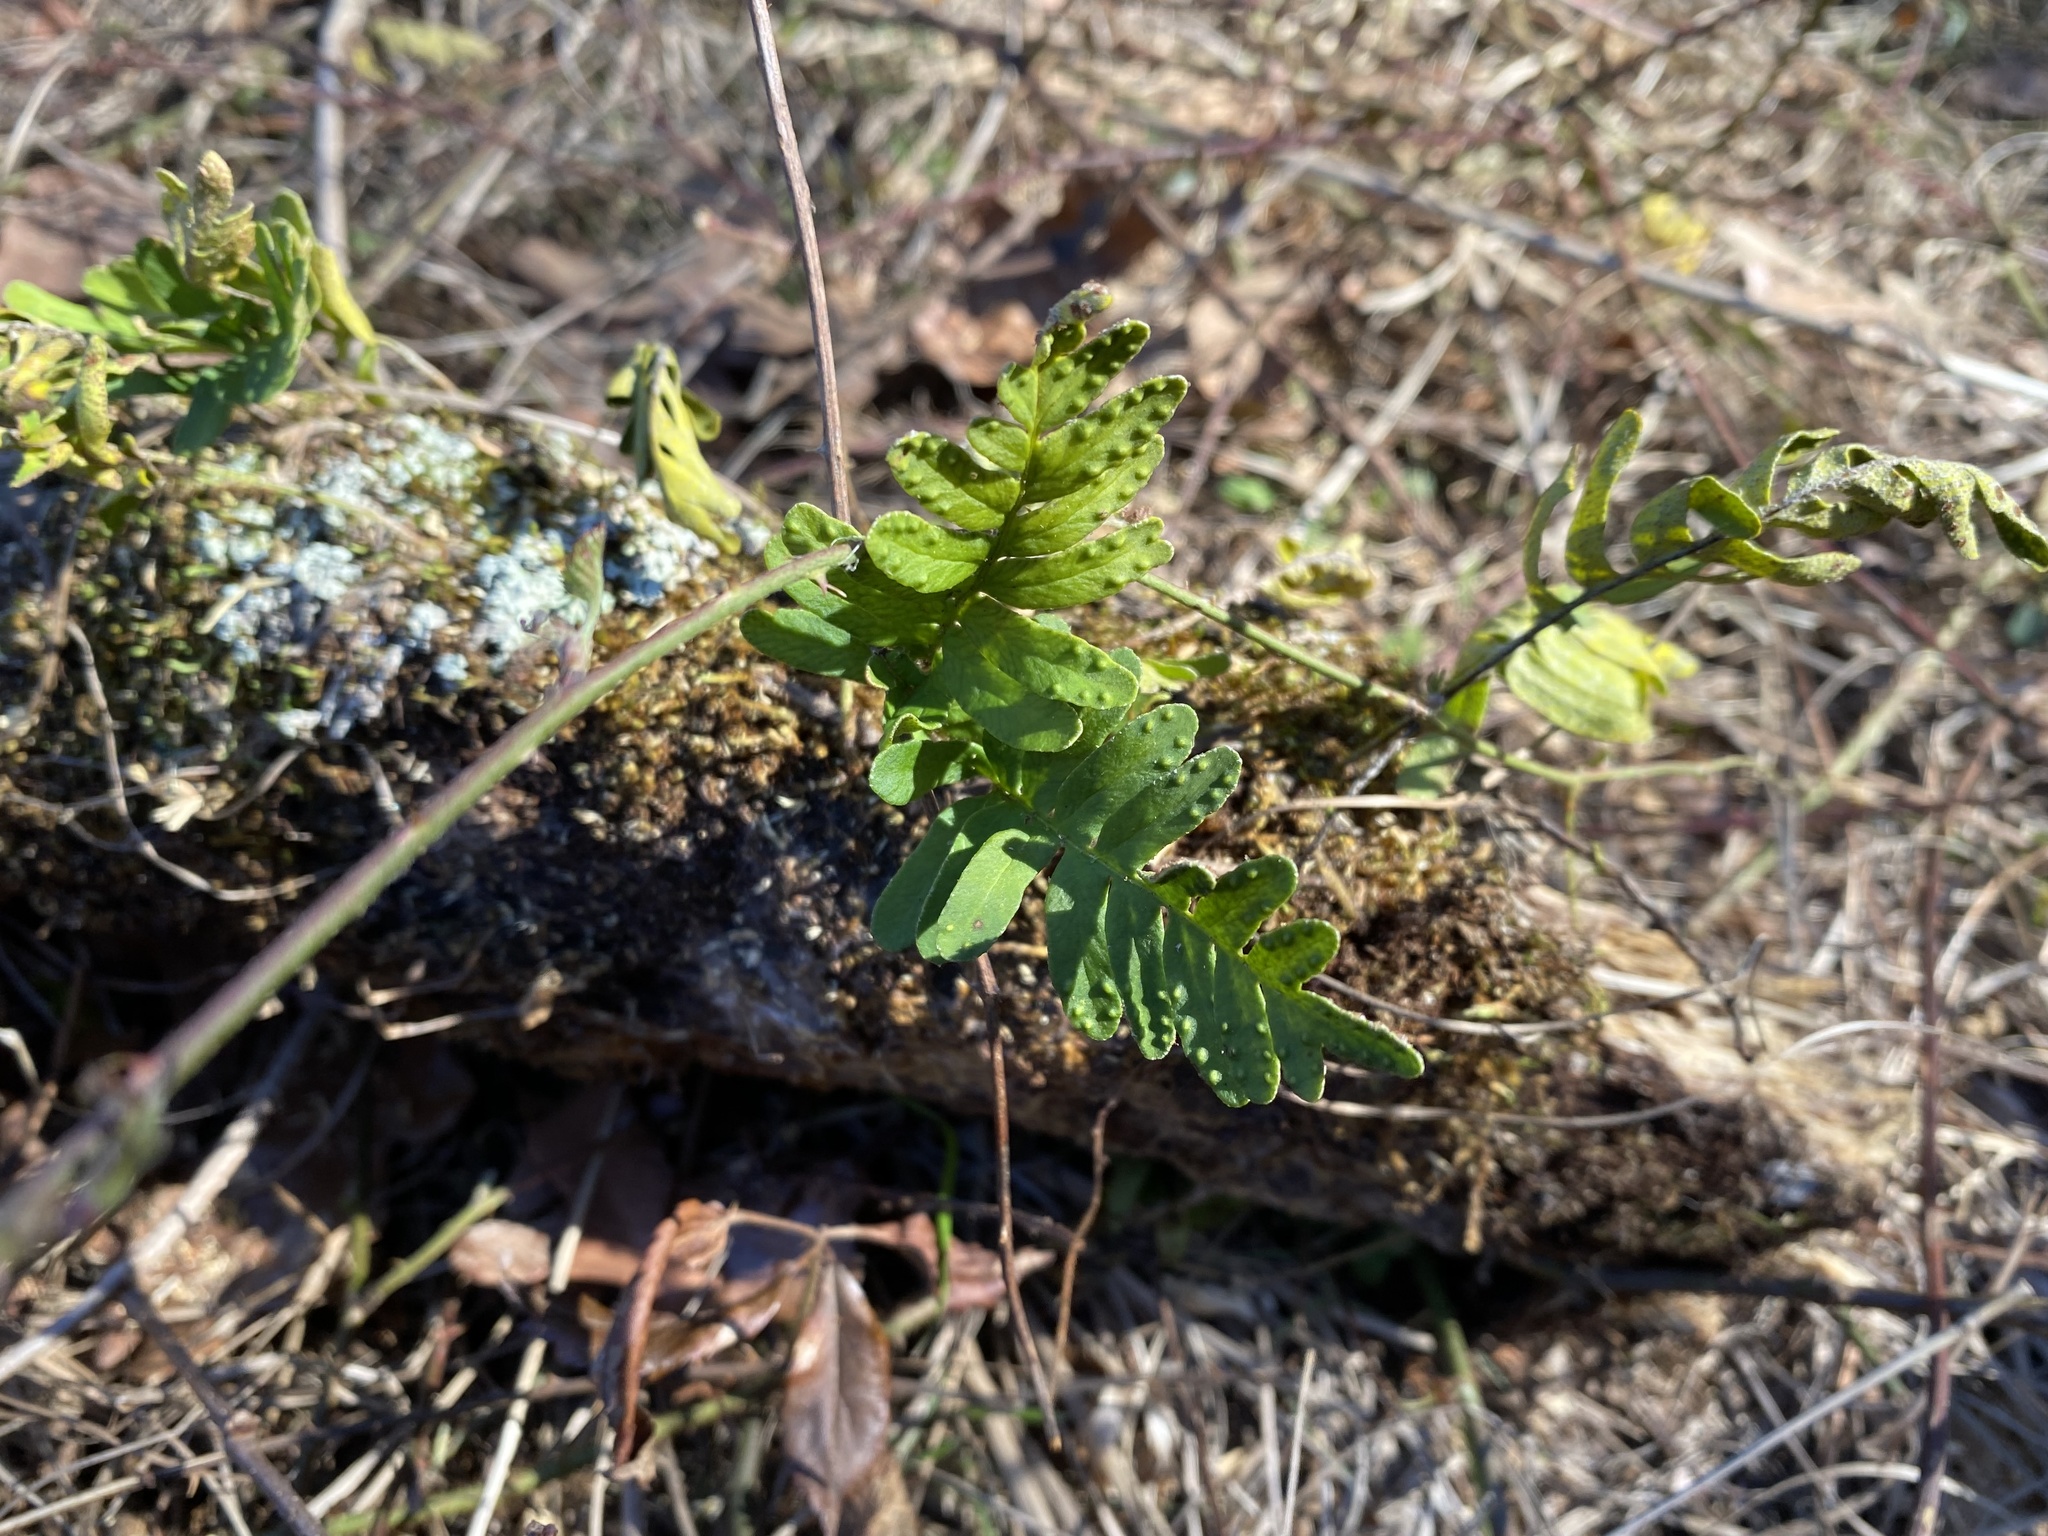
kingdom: Plantae
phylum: Tracheophyta
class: Polypodiopsida
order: Polypodiales
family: Polypodiaceae
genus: Pleopeltis
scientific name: Pleopeltis michauxiana
